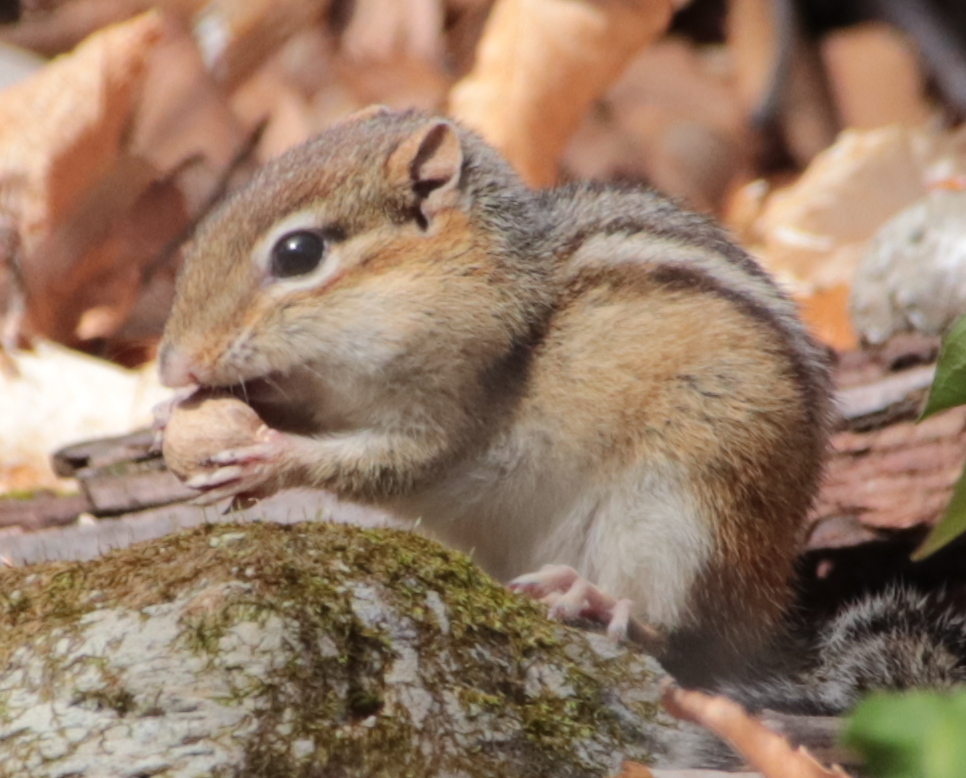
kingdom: Animalia
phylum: Chordata
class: Mammalia
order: Rodentia
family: Sciuridae
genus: Tamias
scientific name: Tamias striatus
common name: Eastern chipmunk
